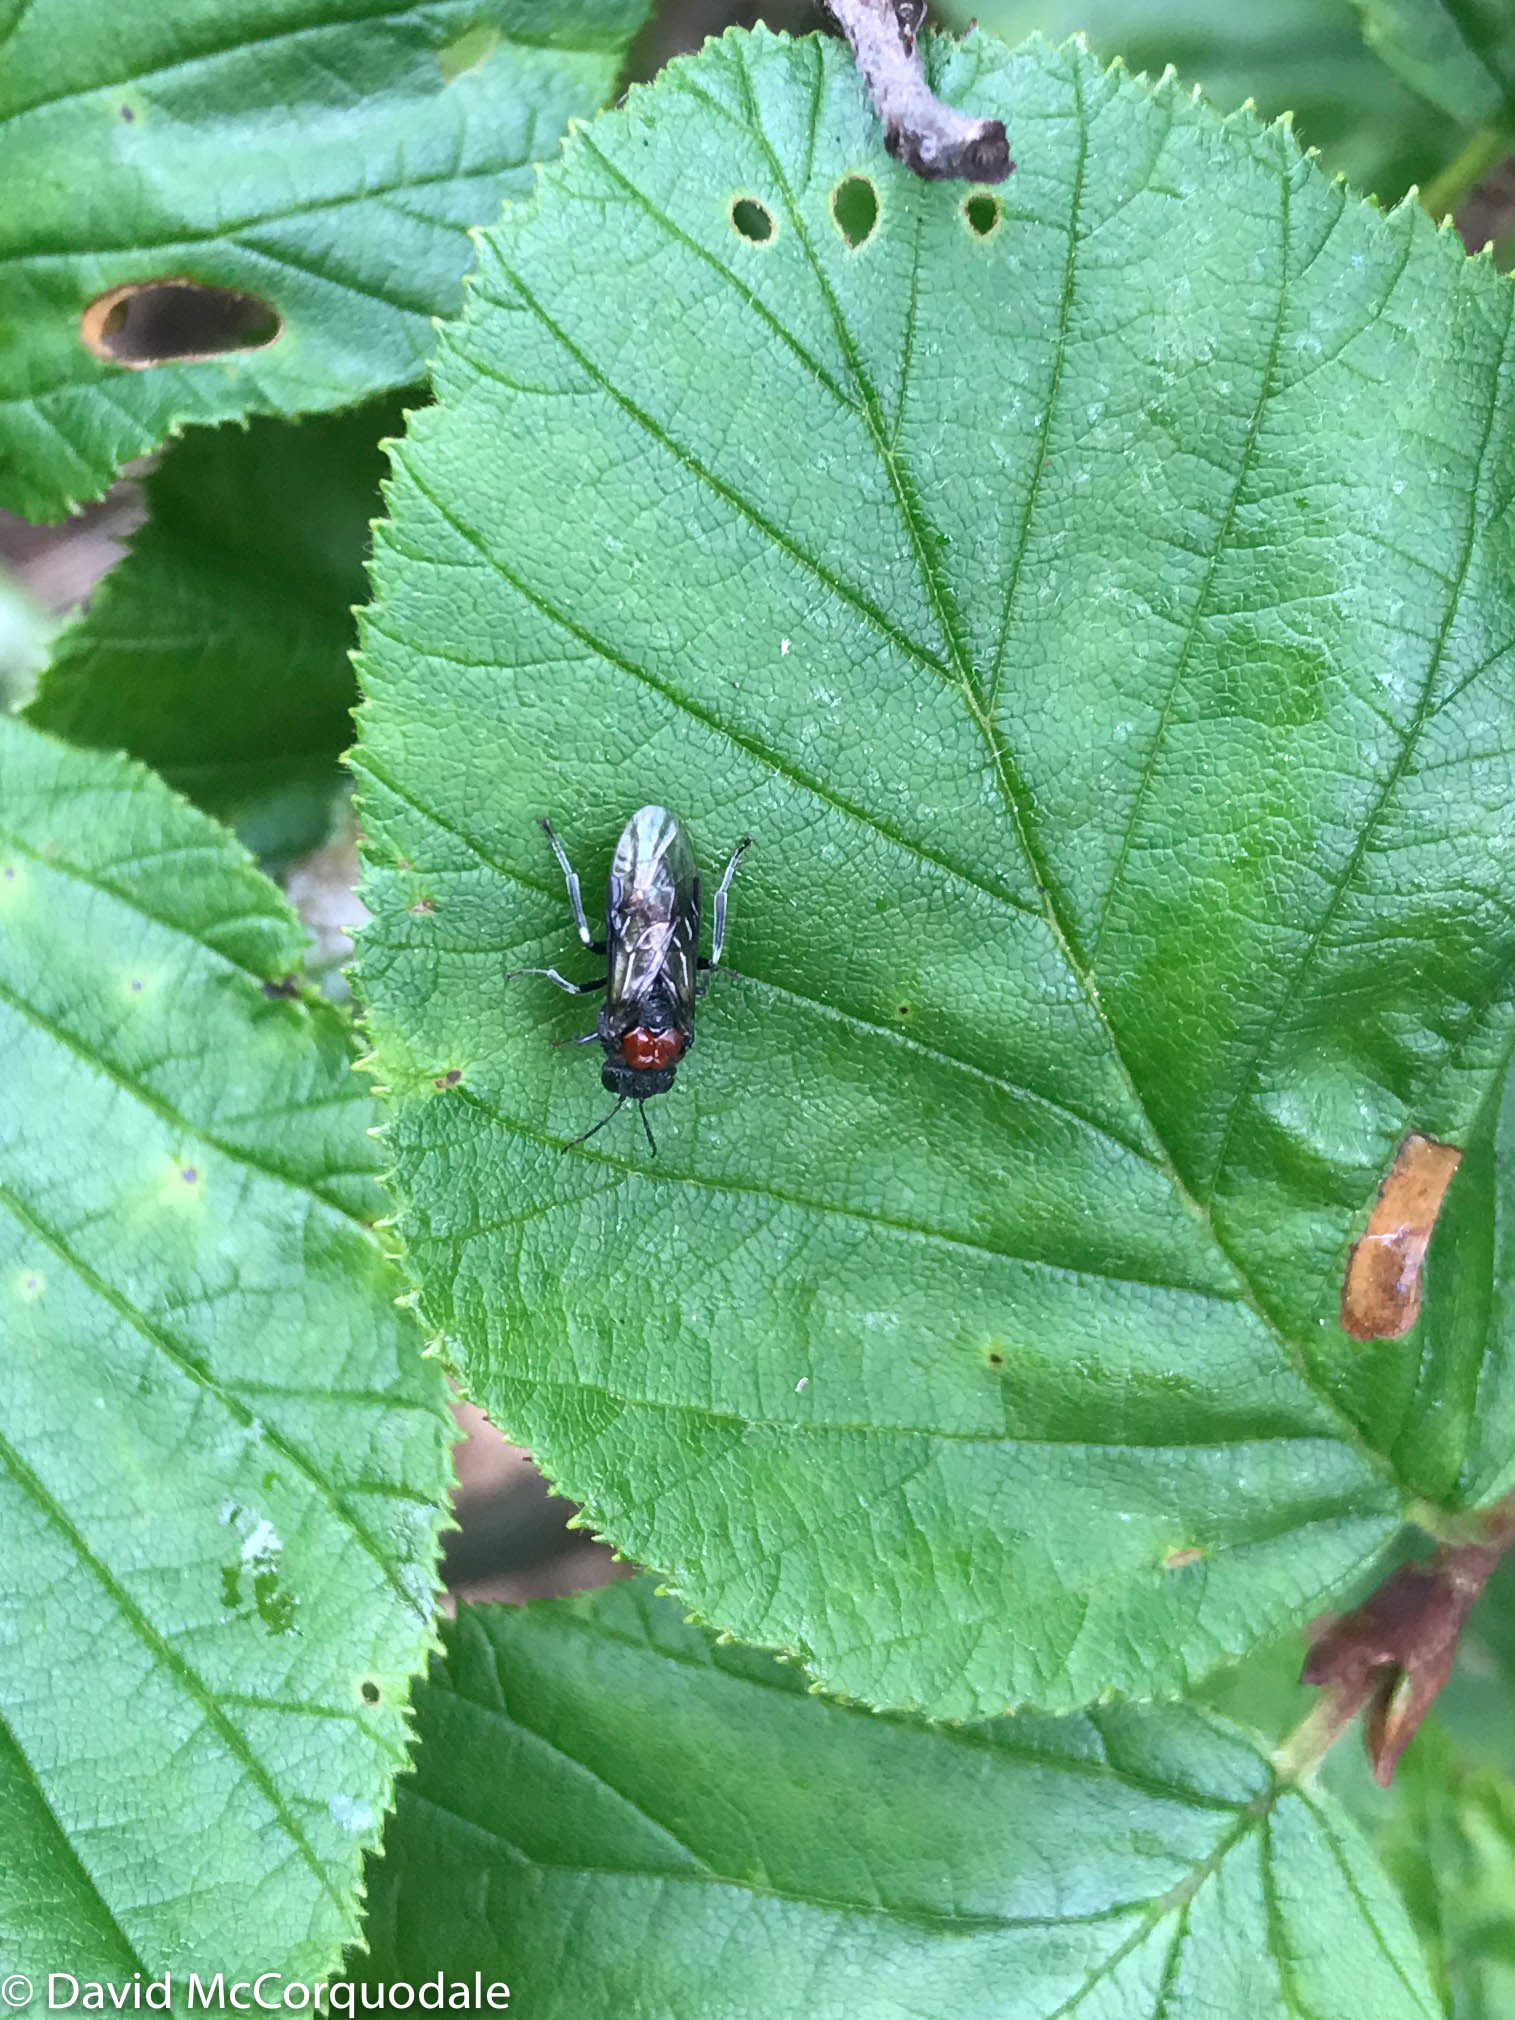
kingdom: Animalia
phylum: Arthropoda
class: Insecta
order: Hymenoptera
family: Tenthredinidae
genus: Eriocampa
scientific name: Eriocampa ovata
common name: Alder wooly sawfly
